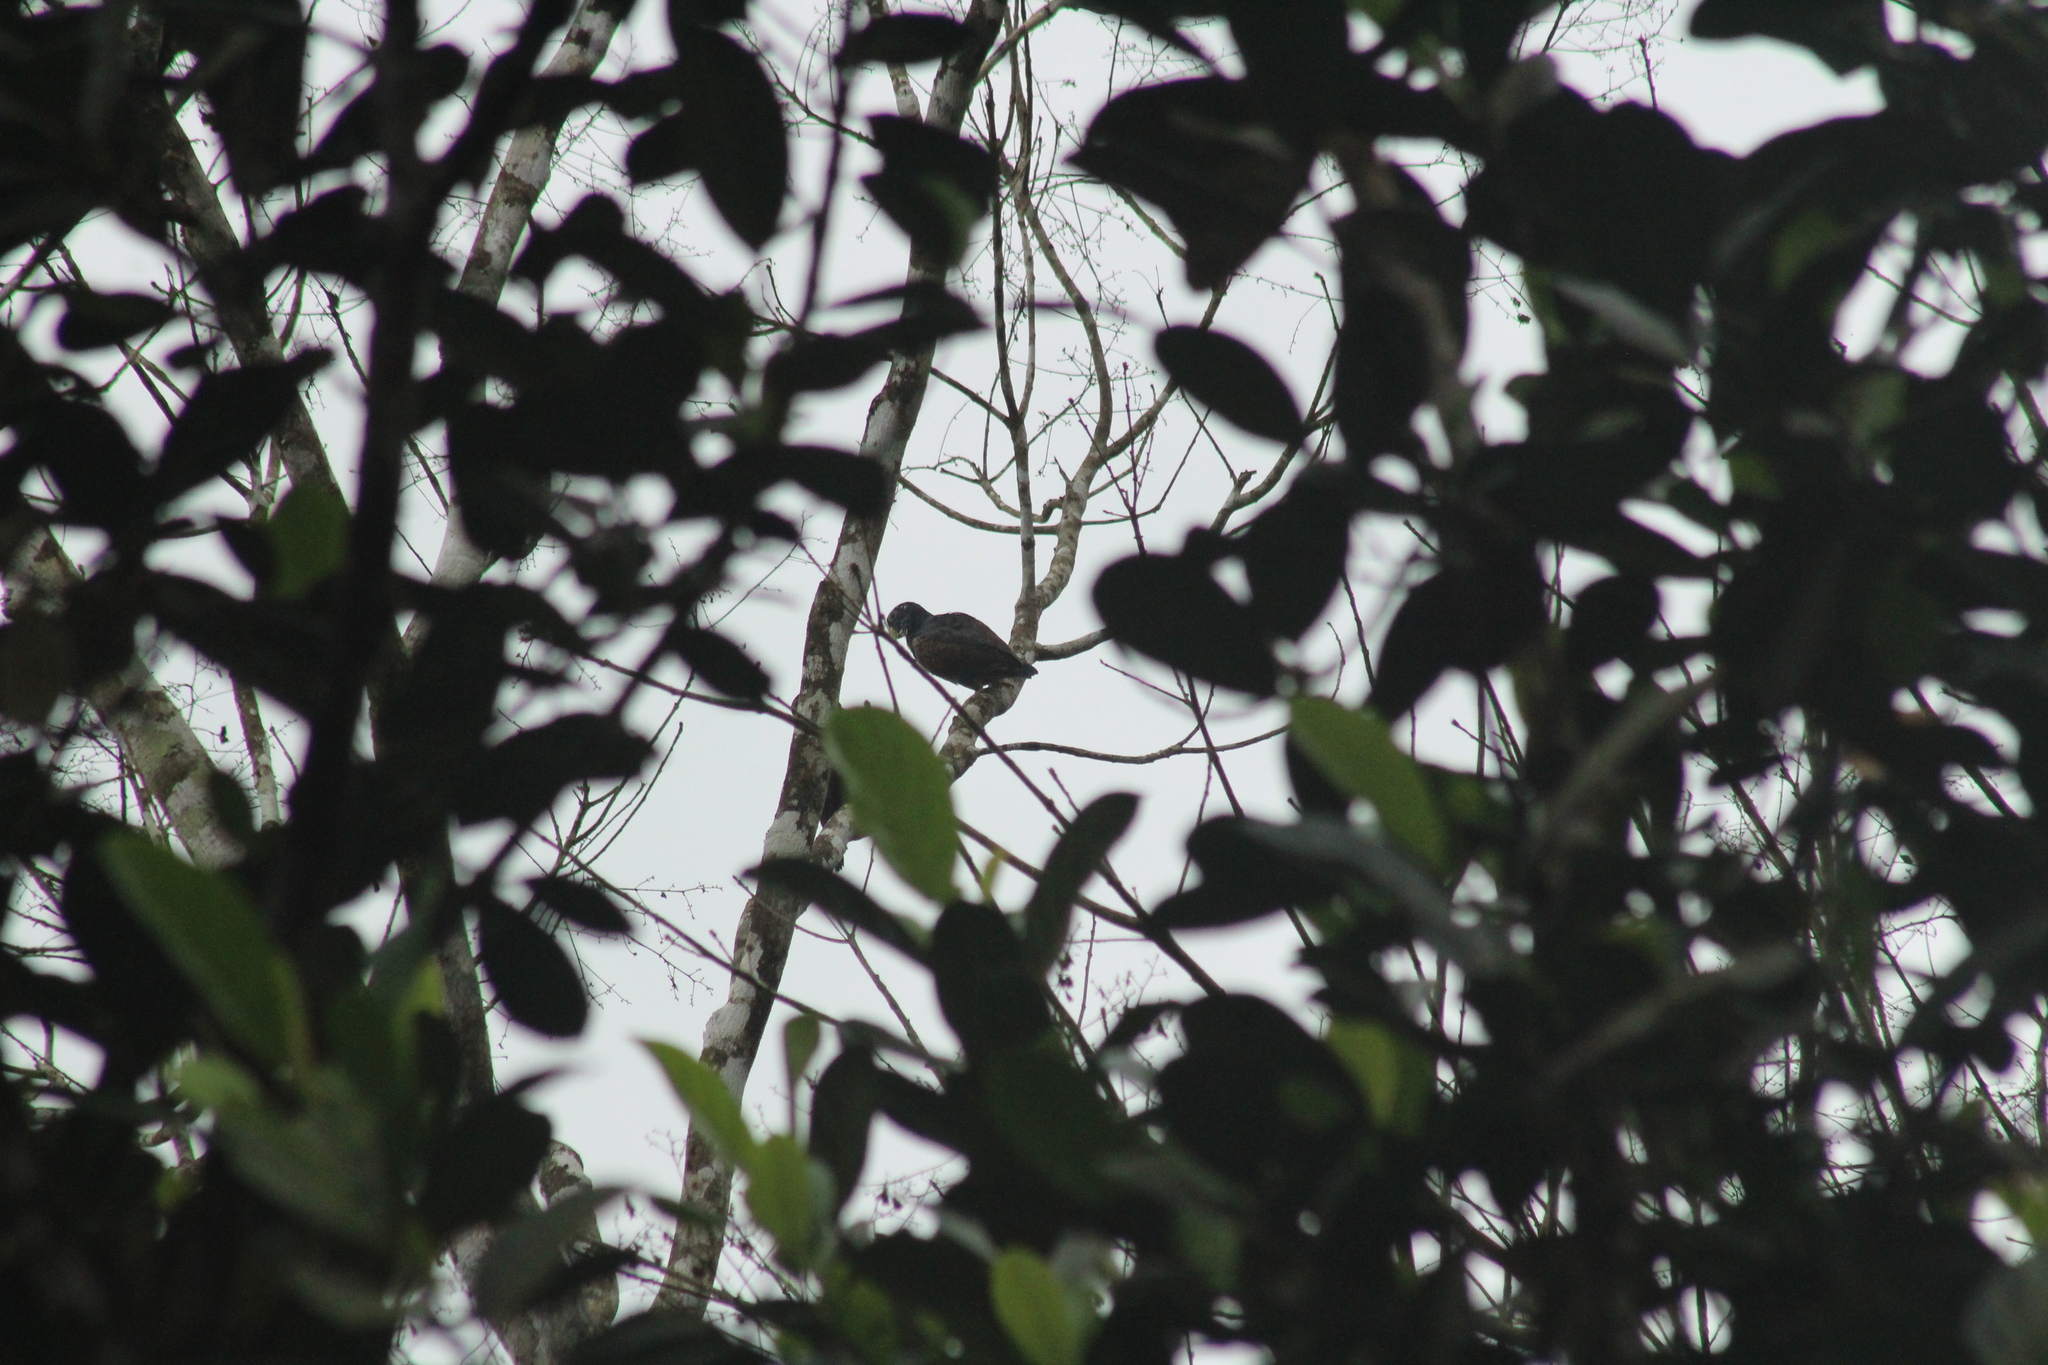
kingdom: Animalia
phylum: Chordata
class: Aves
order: Psittaciformes
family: Psittacidae
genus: Pionus
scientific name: Pionus chalcopterus
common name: Bronze-winged parrot
